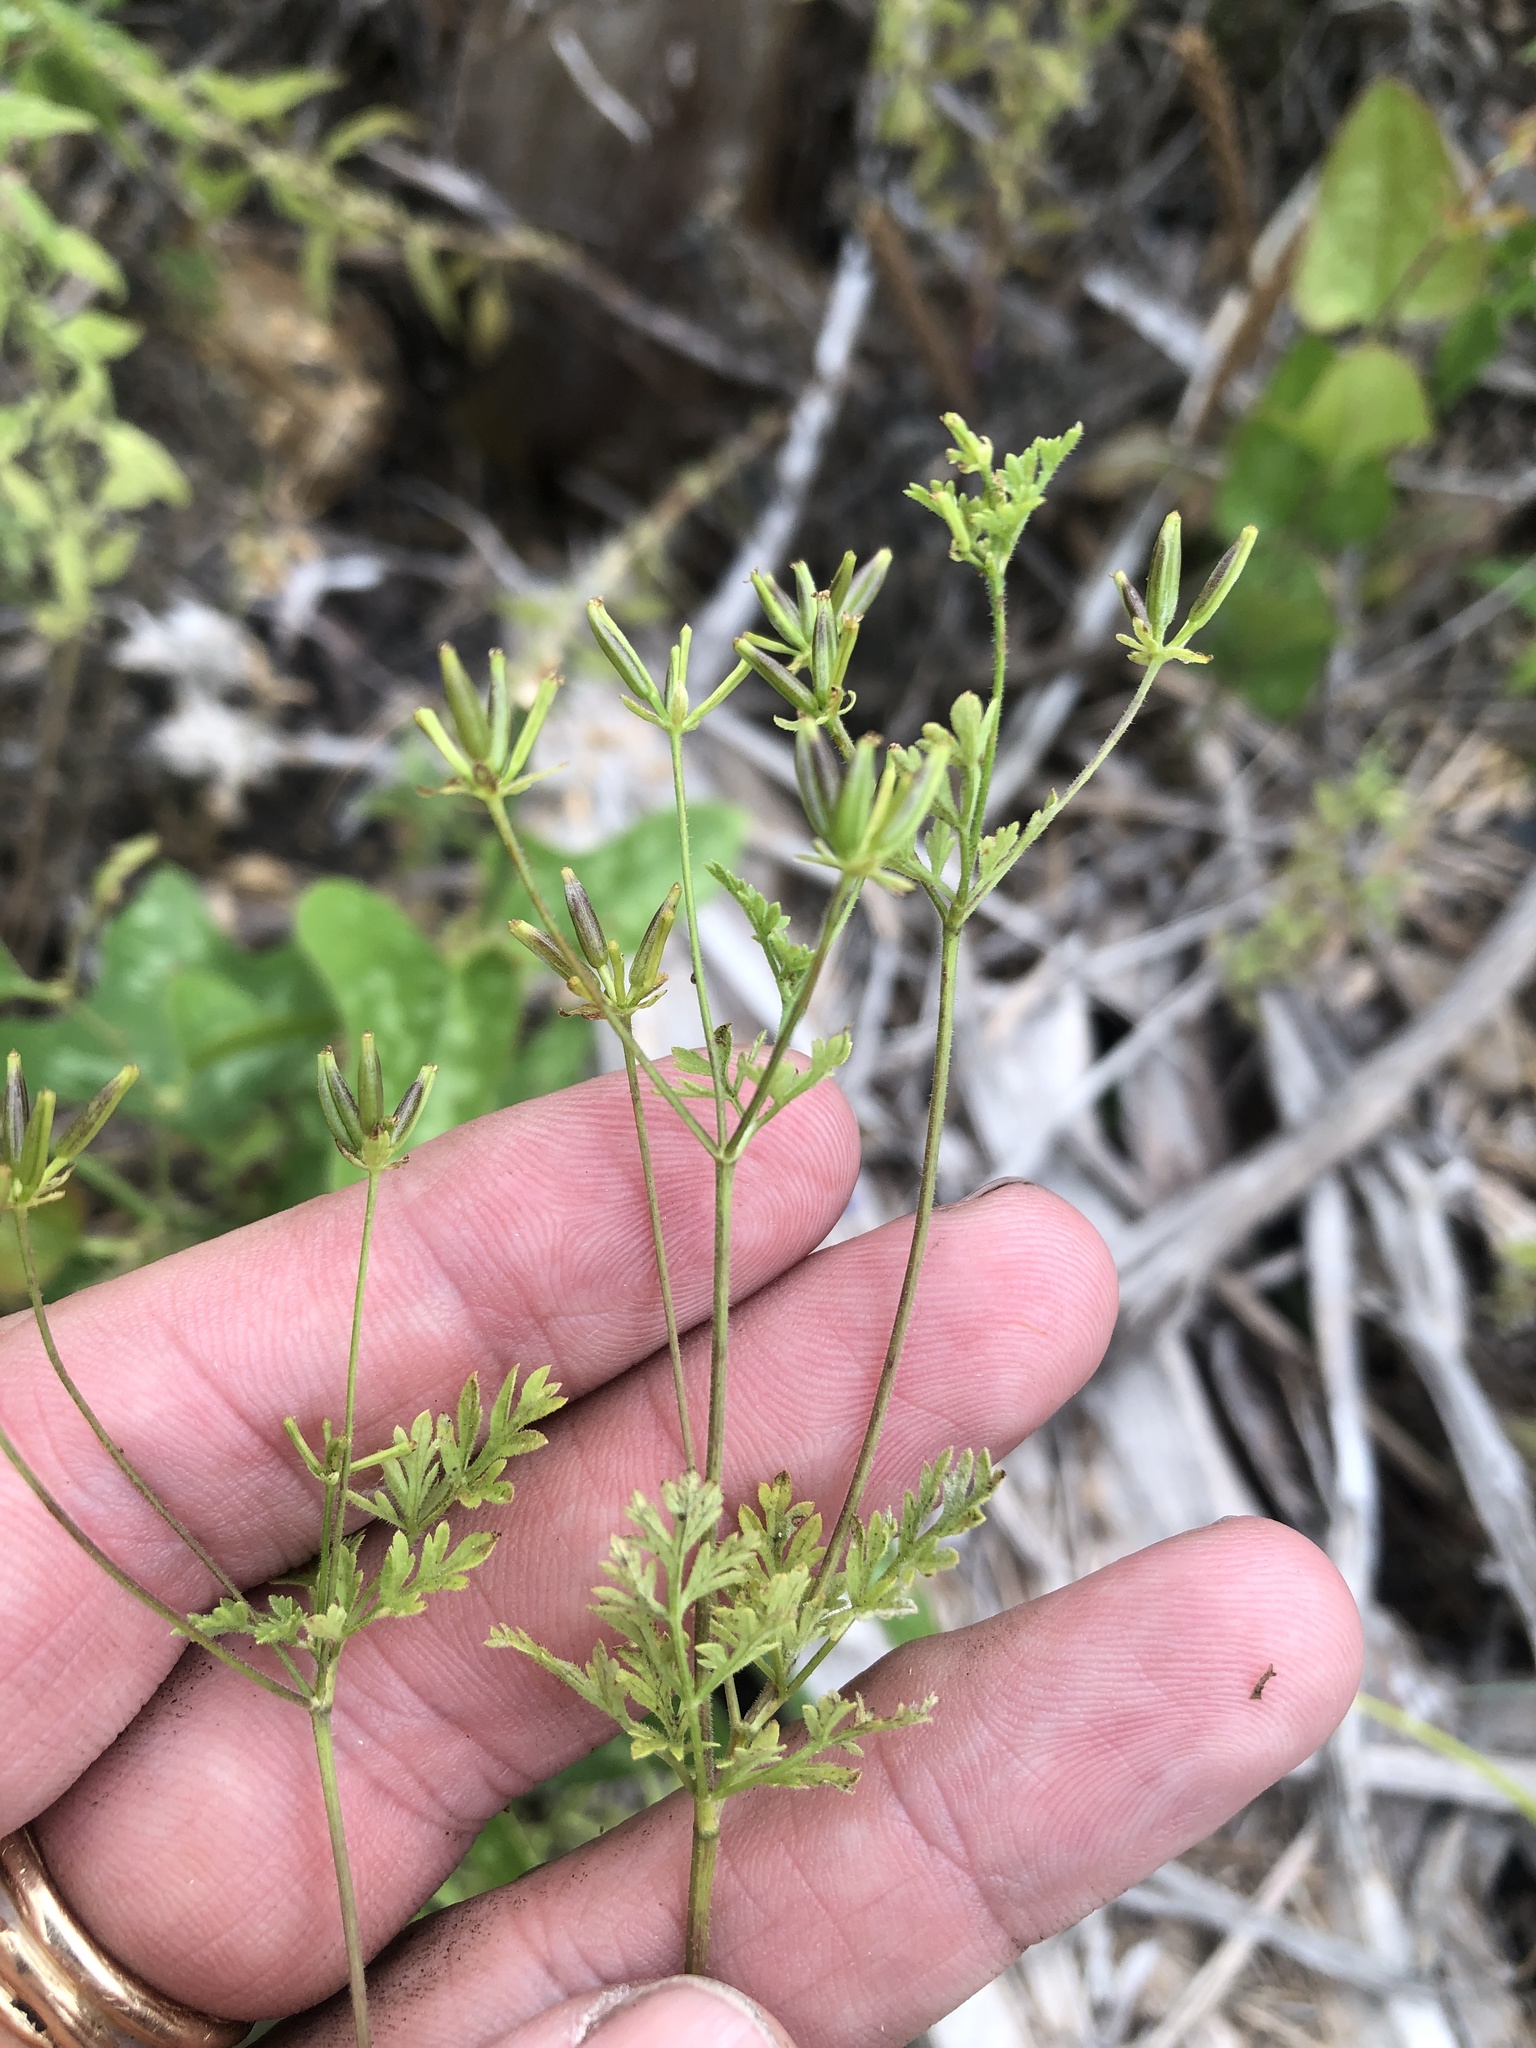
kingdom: Plantae
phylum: Tracheophyta
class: Magnoliopsida
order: Apiales
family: Apiaceae
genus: Chaerophyllum
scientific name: Chaerophyllum tainturieri
